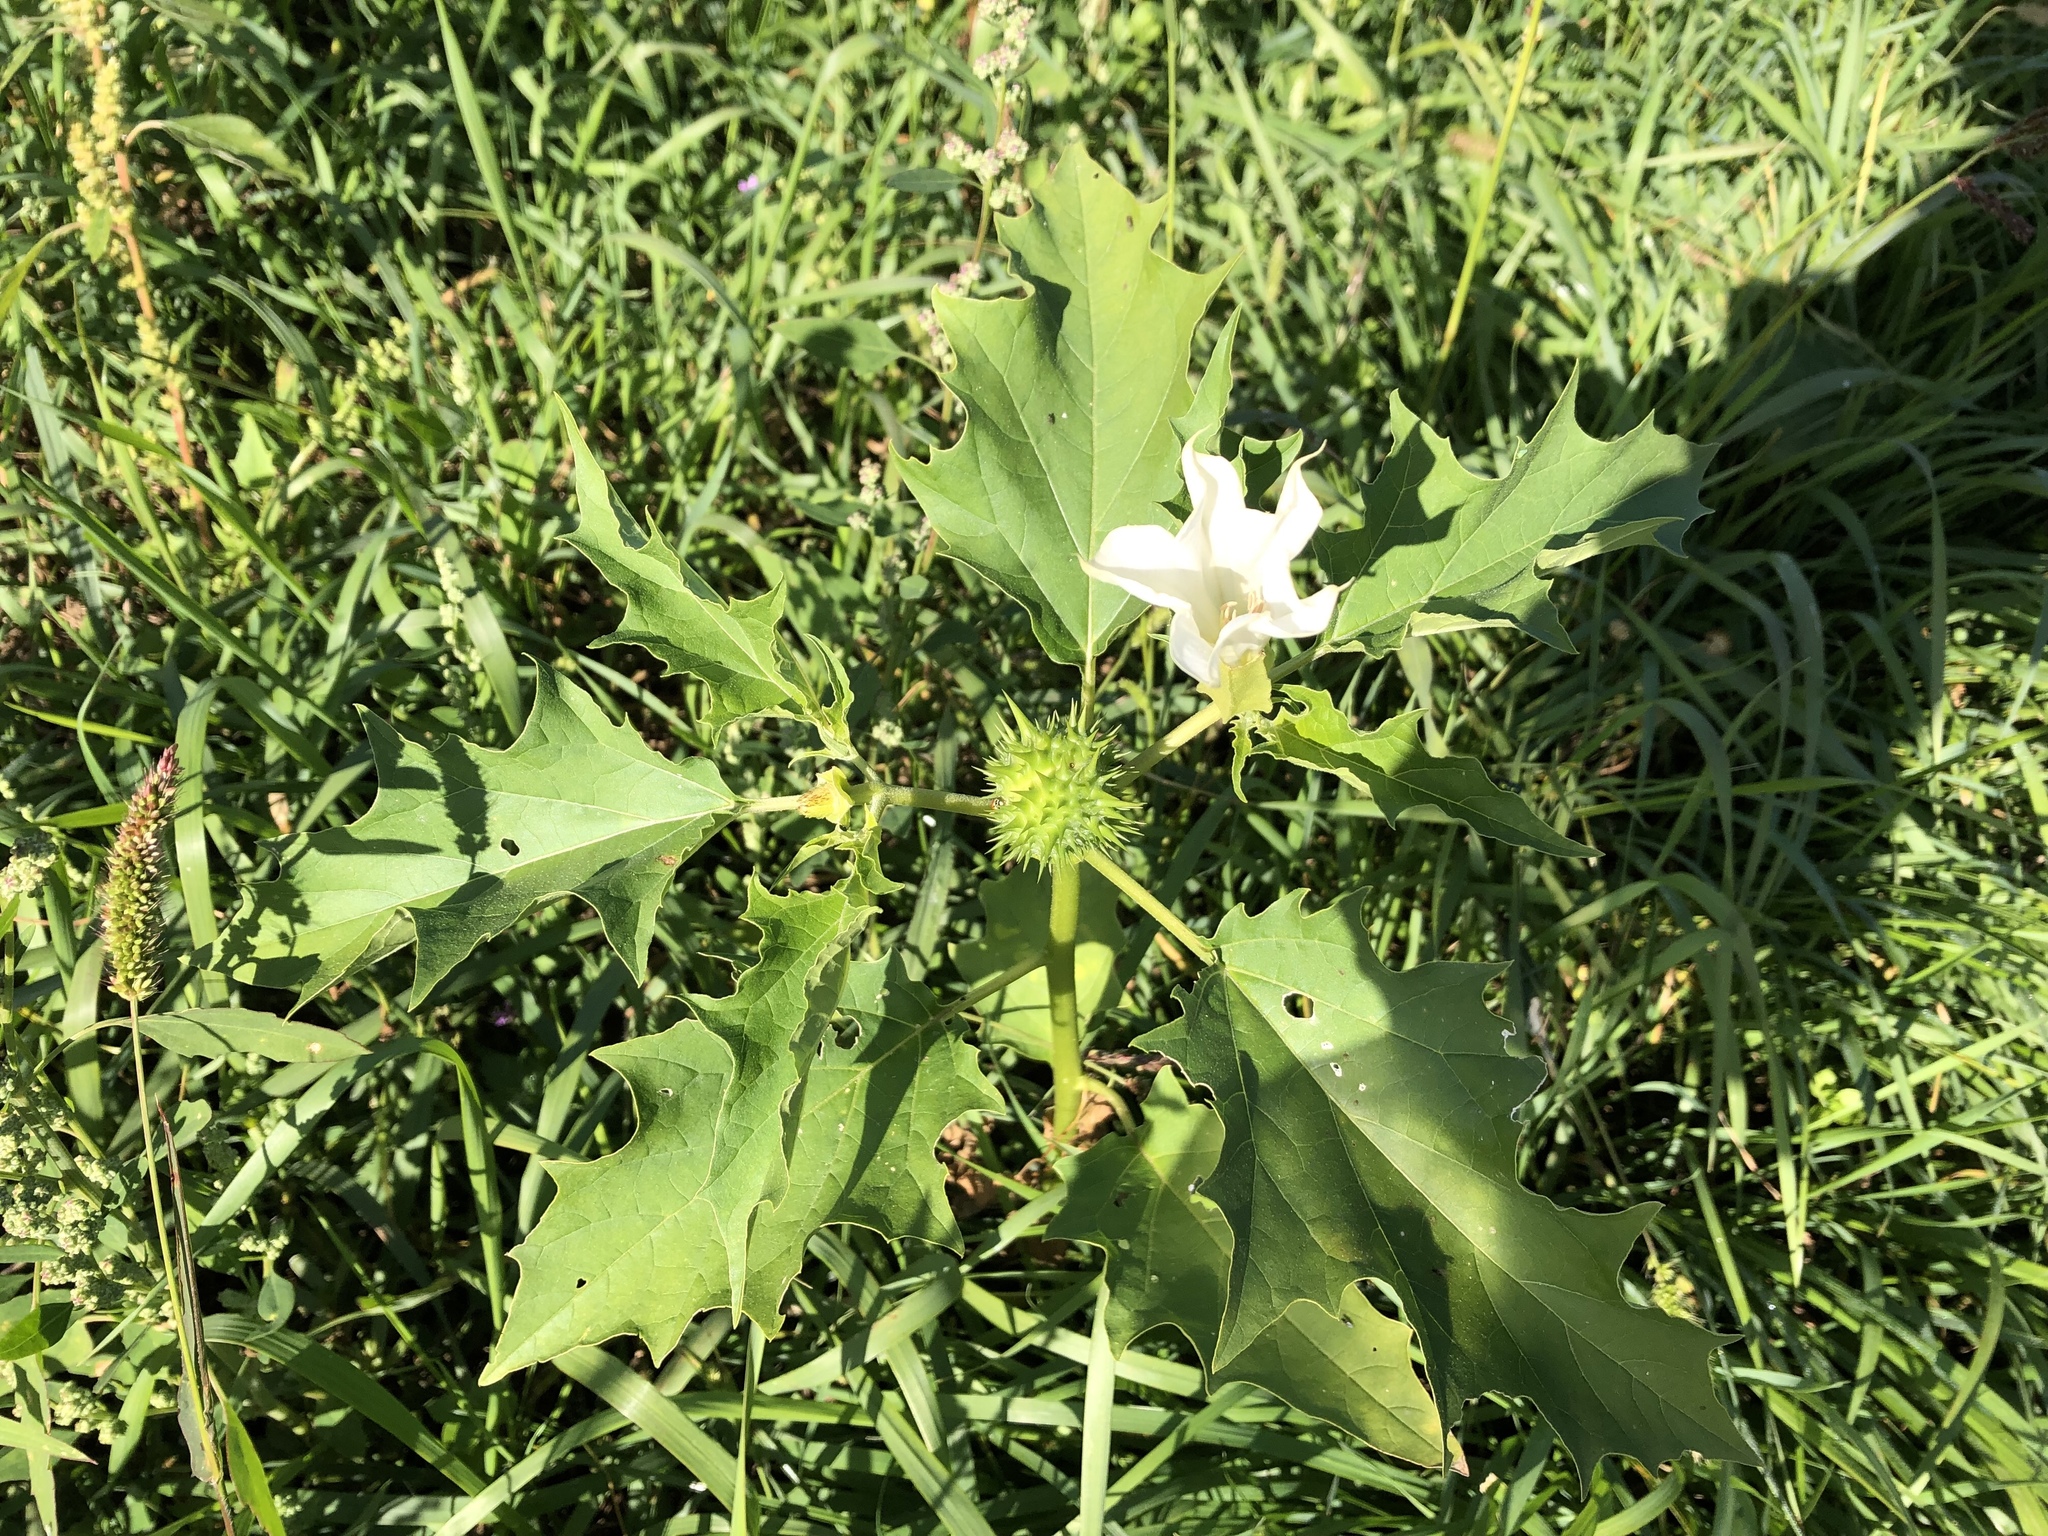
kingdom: Plantae
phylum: Tracheophyta
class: Magnoliopsida
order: Solanales
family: Solanaceae
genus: Datura
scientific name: Datura stramonium
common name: Thorn-apple
